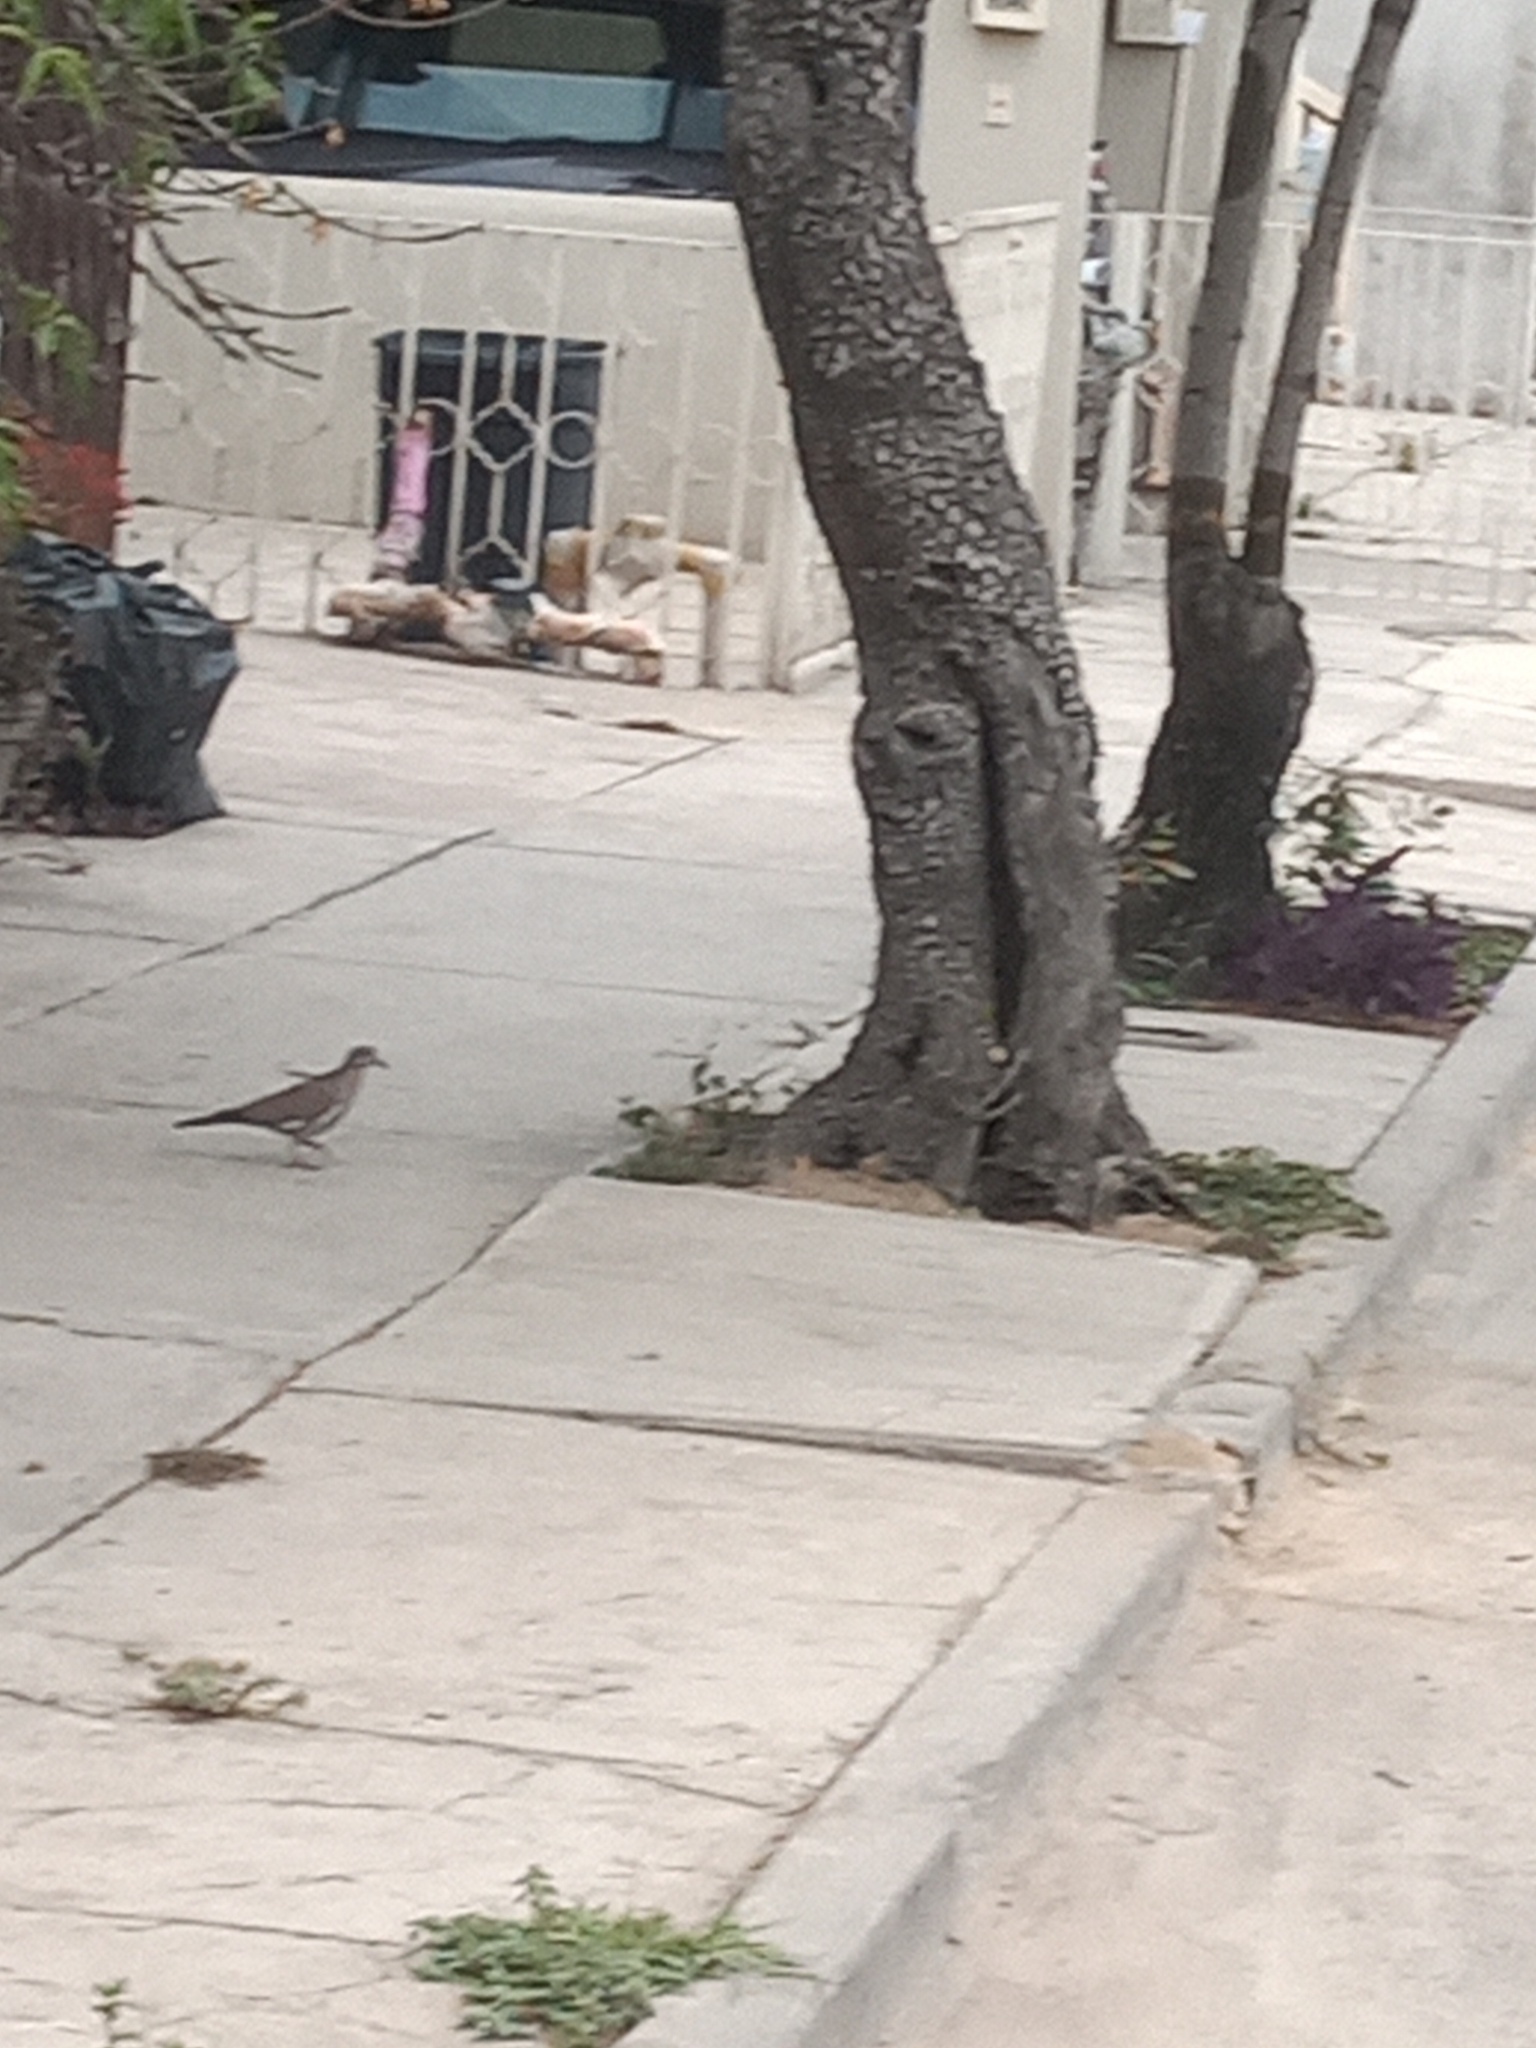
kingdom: Animalia
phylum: Chordata
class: Aves
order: Columbiformes
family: Columbidae
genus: Zenaida
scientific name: Zenaida asiatica
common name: White-winged dove
